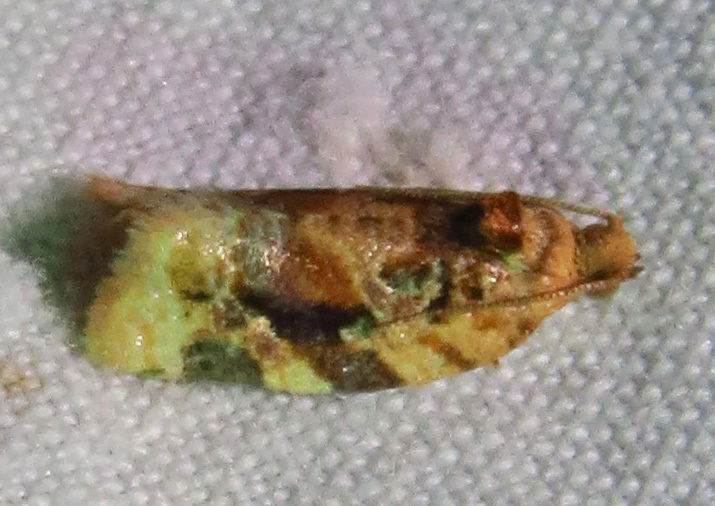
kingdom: Animalia
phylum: Arthropoda
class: Insecta
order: Lepidoptera
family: Tortricidae
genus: Argyrotaenia
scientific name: Argyrotaenia velutinana
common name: Red-banded leafroller moth
